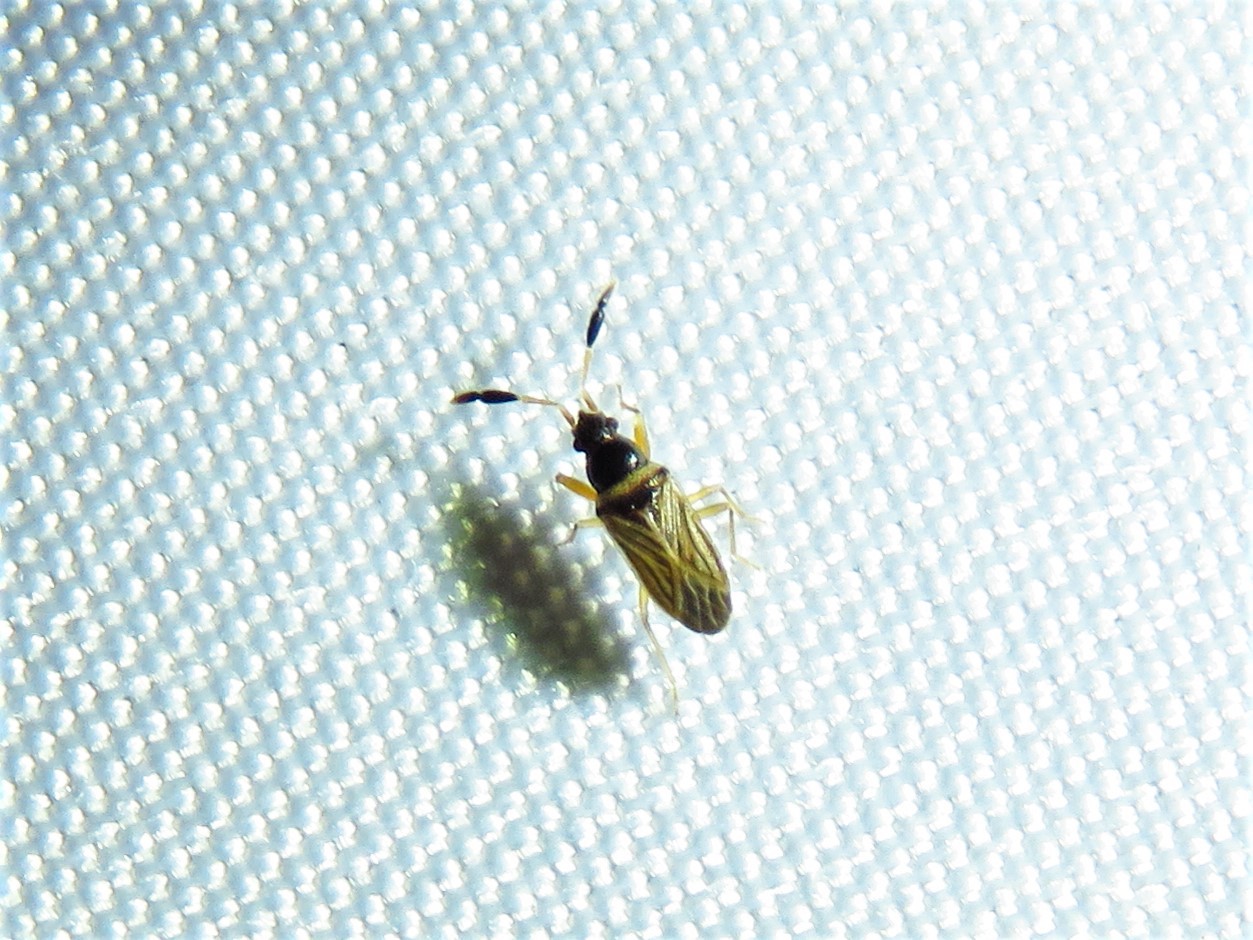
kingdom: Animalia
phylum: Arthropoda
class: Insecta
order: Hemiptera
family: Rhyparochromidae
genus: Ptochiomera
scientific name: Ptochiomera nodosa
